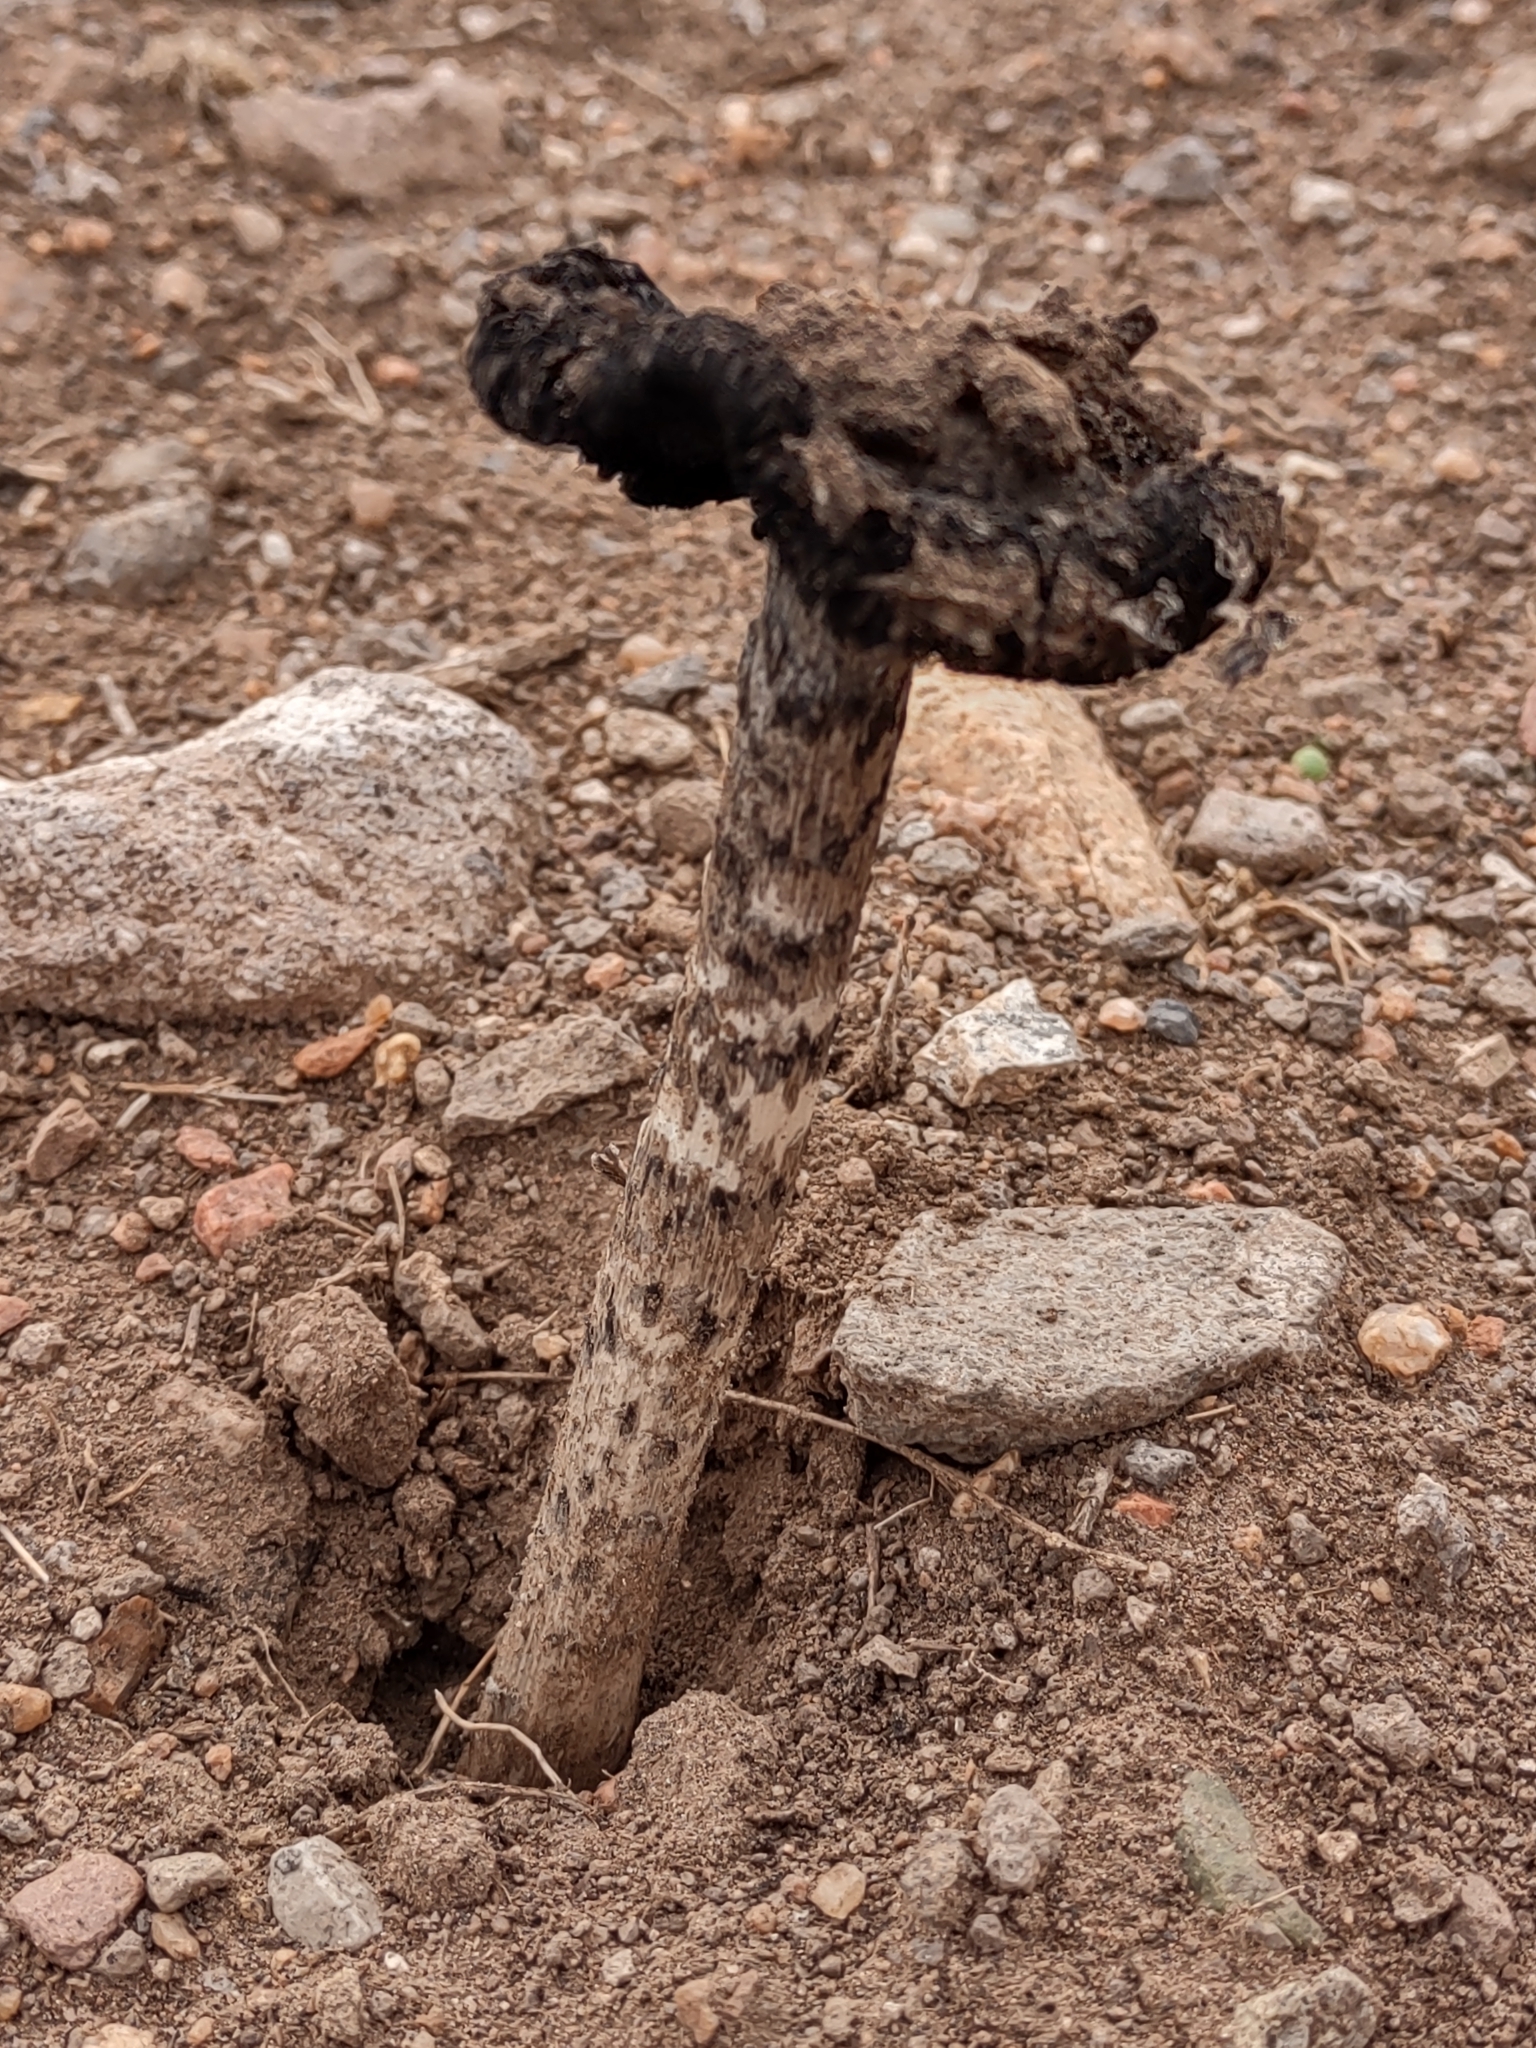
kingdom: Fungi
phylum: Basidiomycota
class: Agaricomycetes
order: Agaricales
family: Agaricaceae
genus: Montagnea
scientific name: Montagnea arenaria
